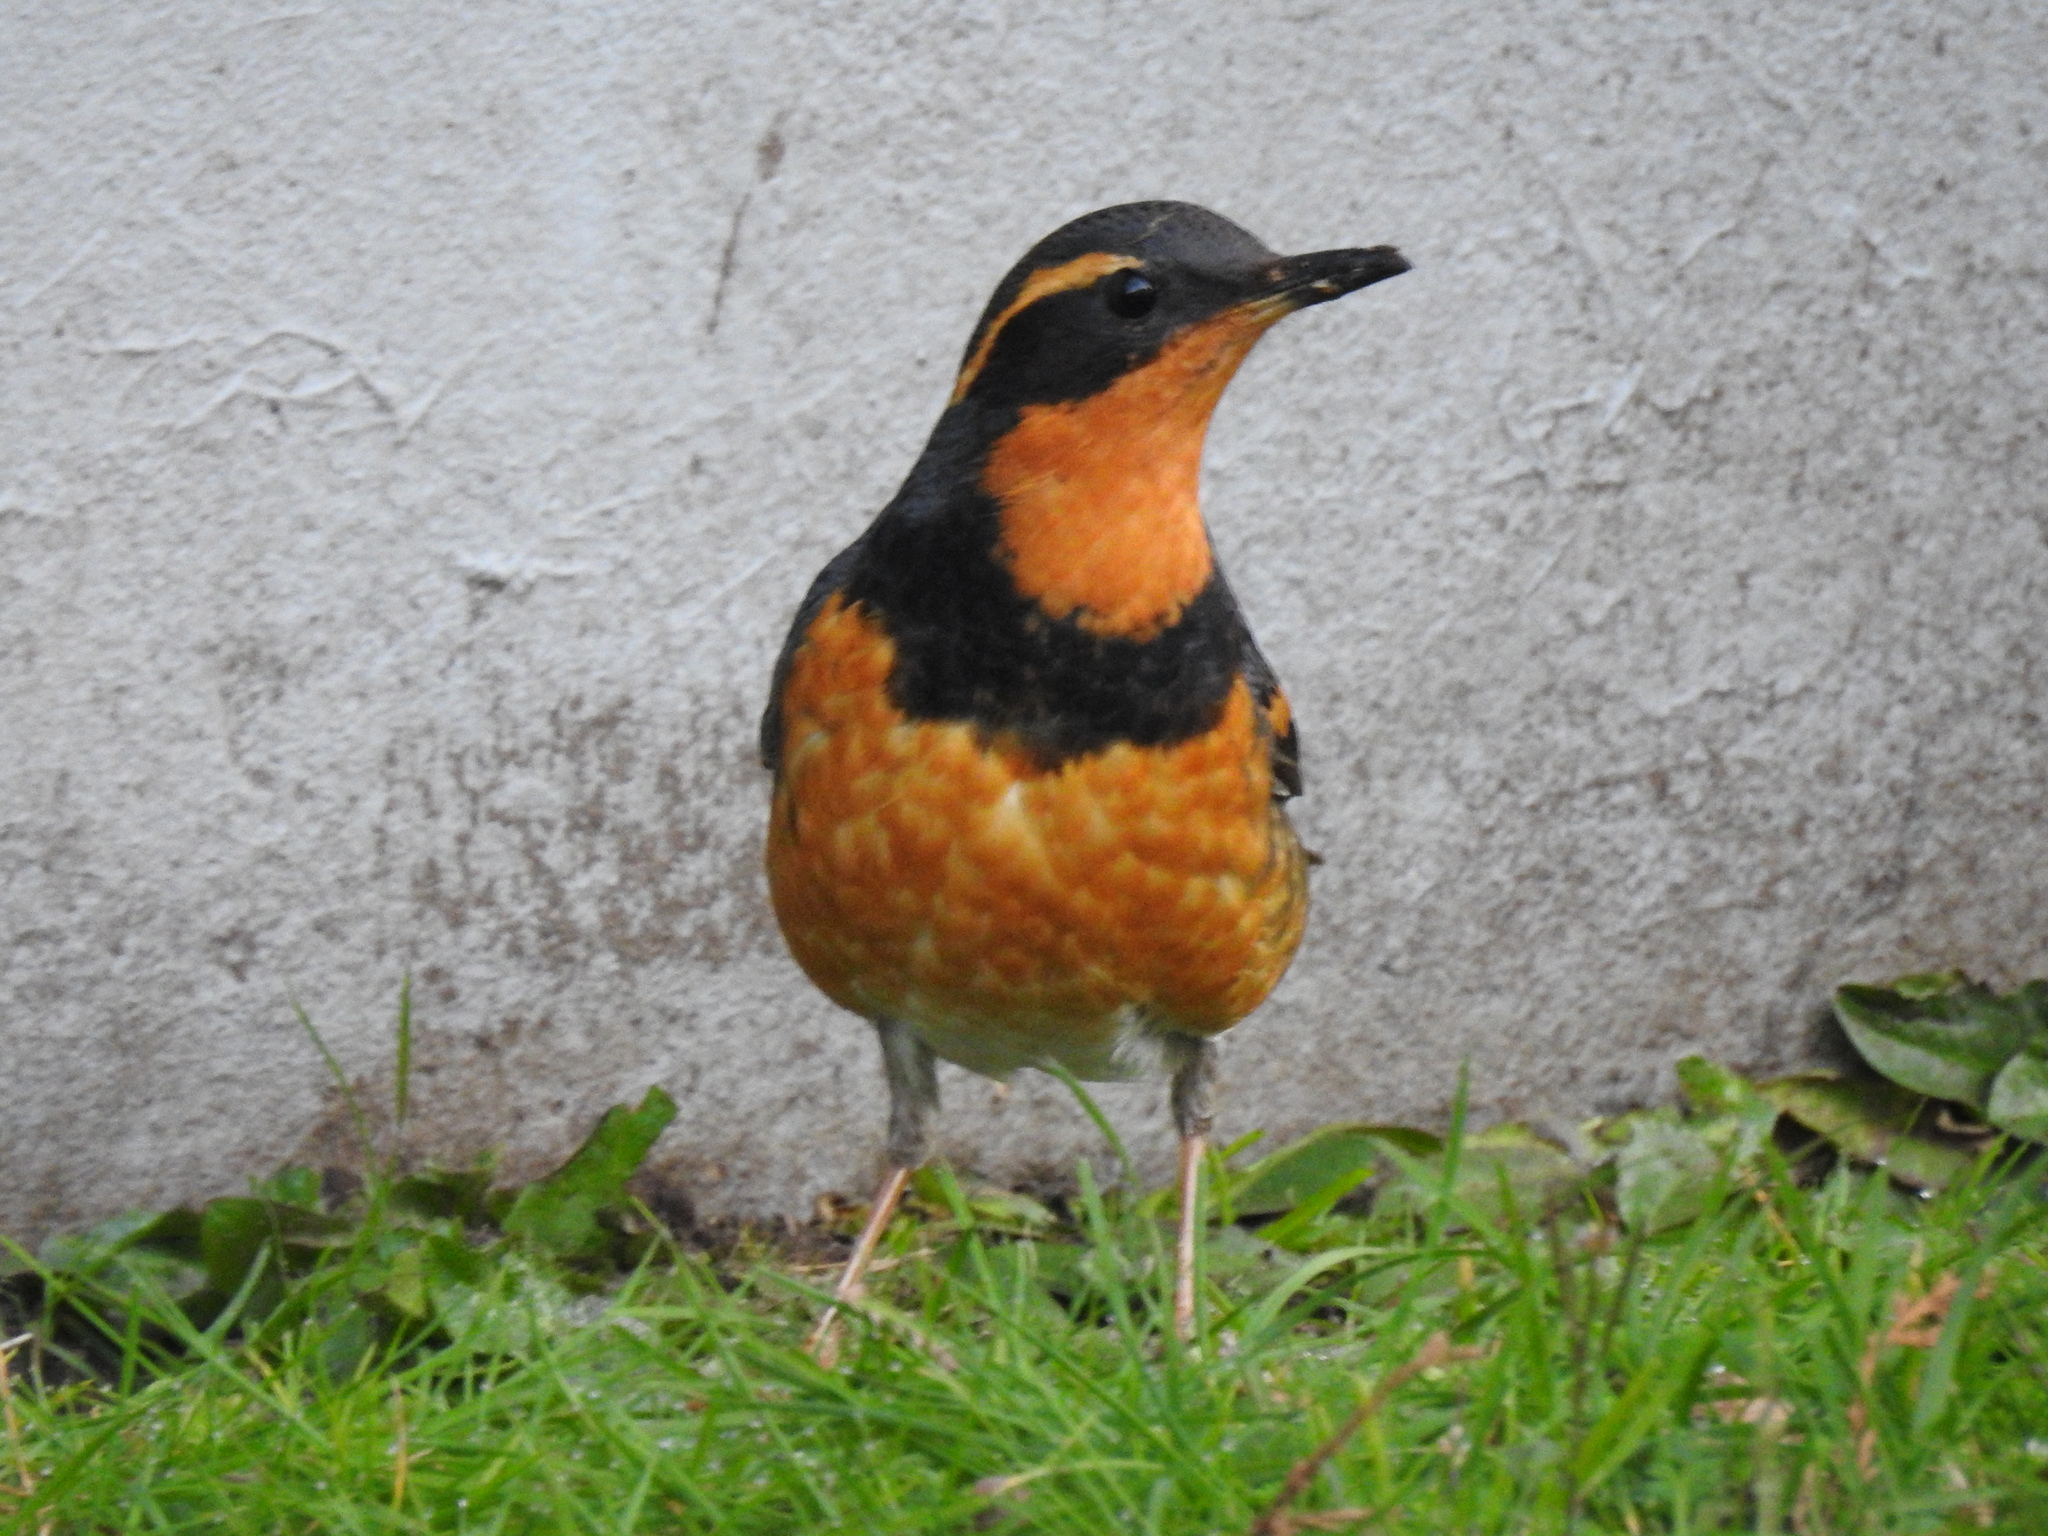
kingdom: Animalia
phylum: Chordata
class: Aves
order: Passeriformes
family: Turdidae
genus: Ixoreus
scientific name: Ixoreus naevius
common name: Varied thrush
